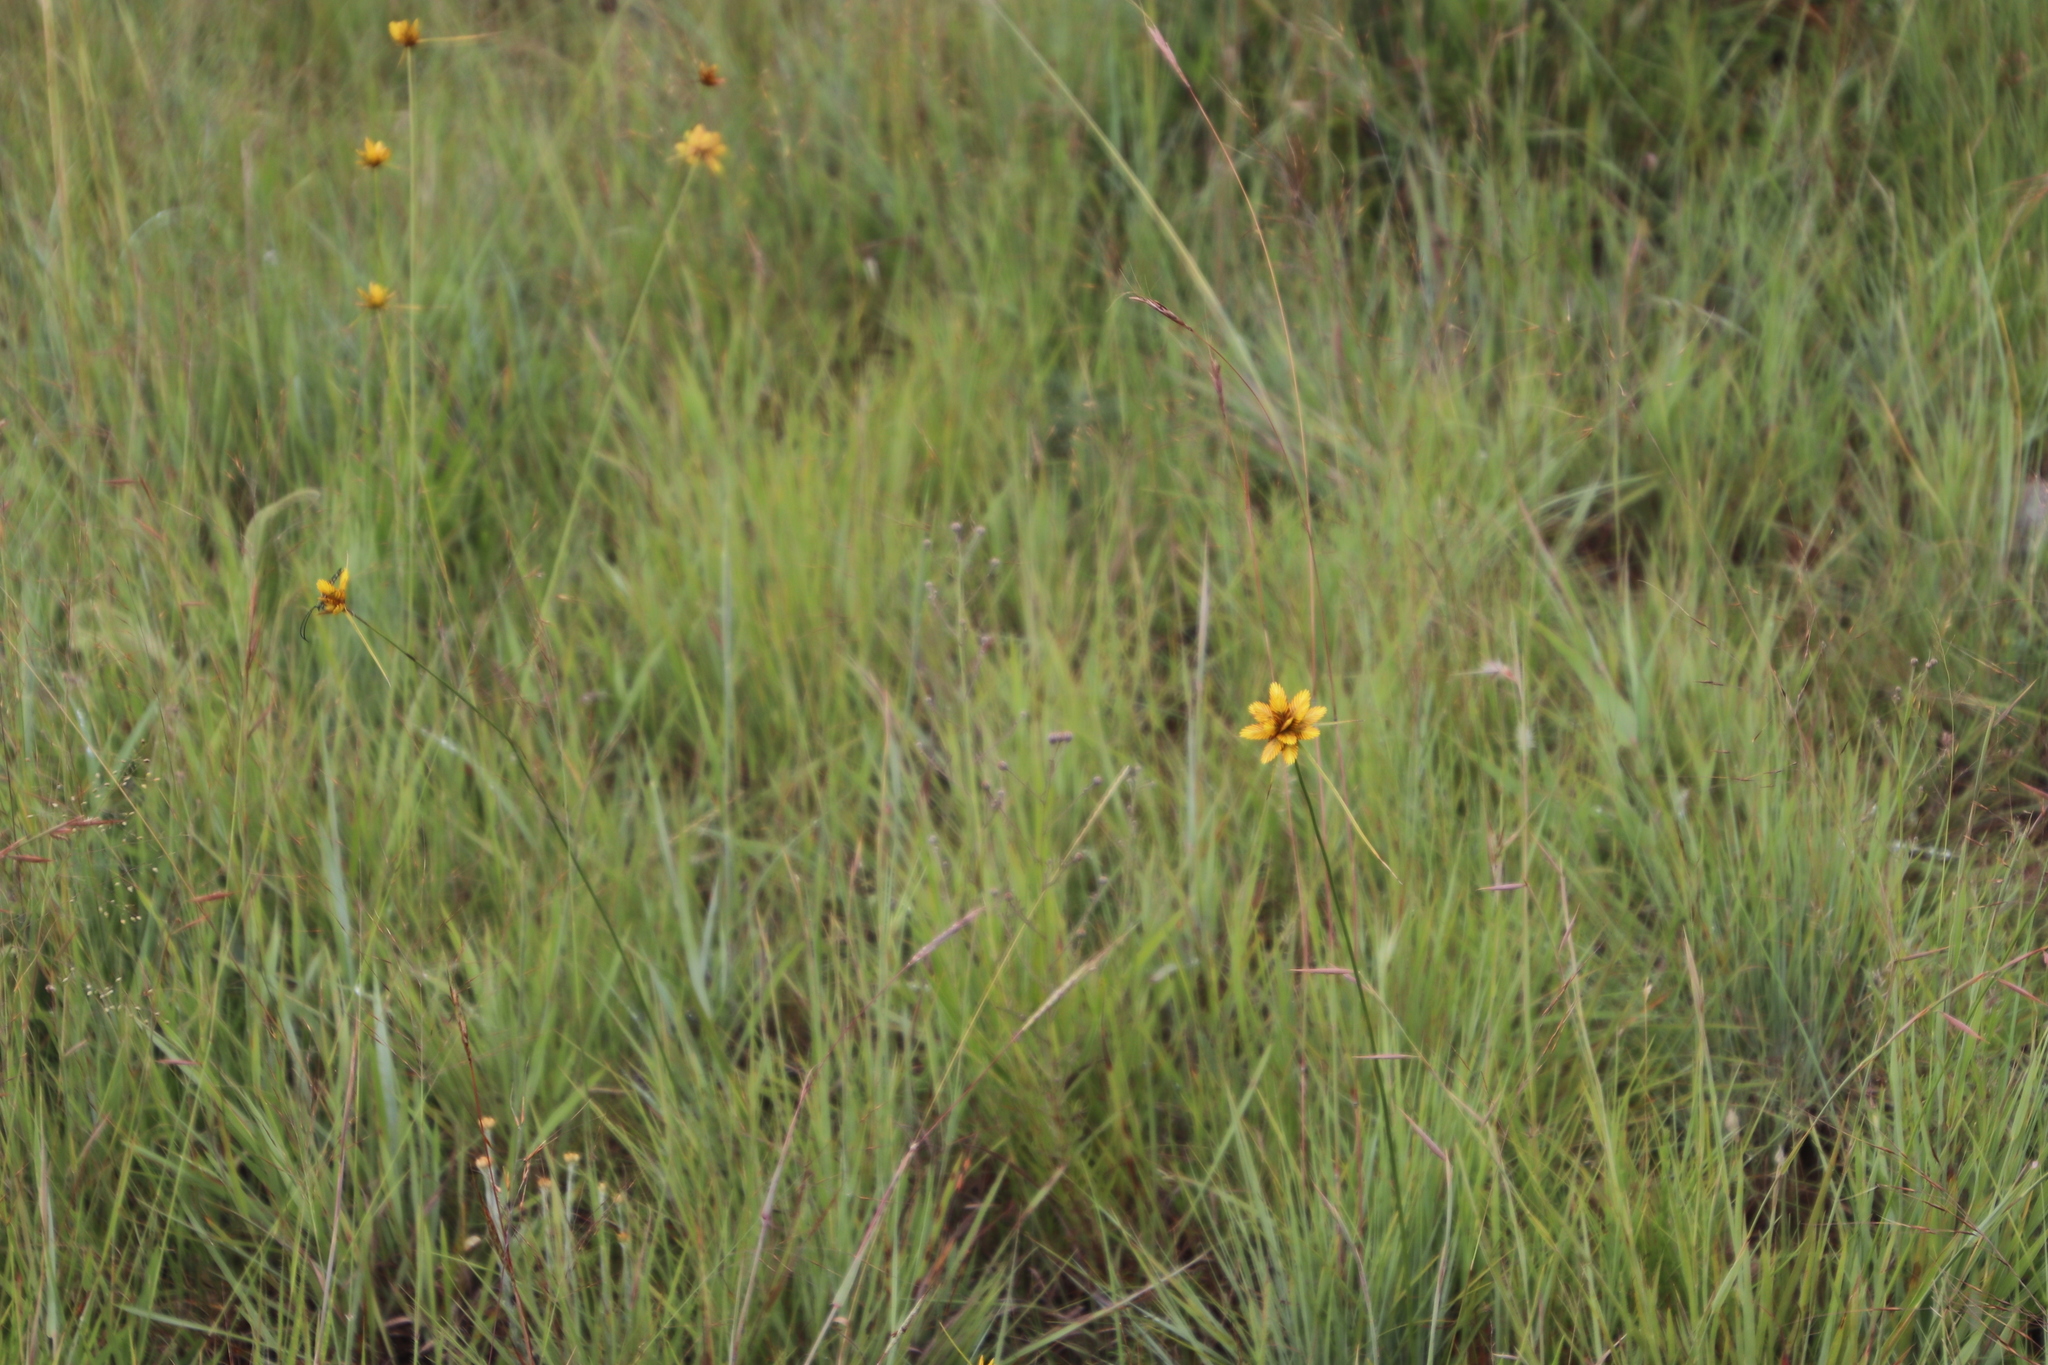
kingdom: Plantae
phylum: Tracheophyta
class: Liliopsida
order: Poales
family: Cyperaceae
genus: Cyperus
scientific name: Cyperus sphaerocephalus
